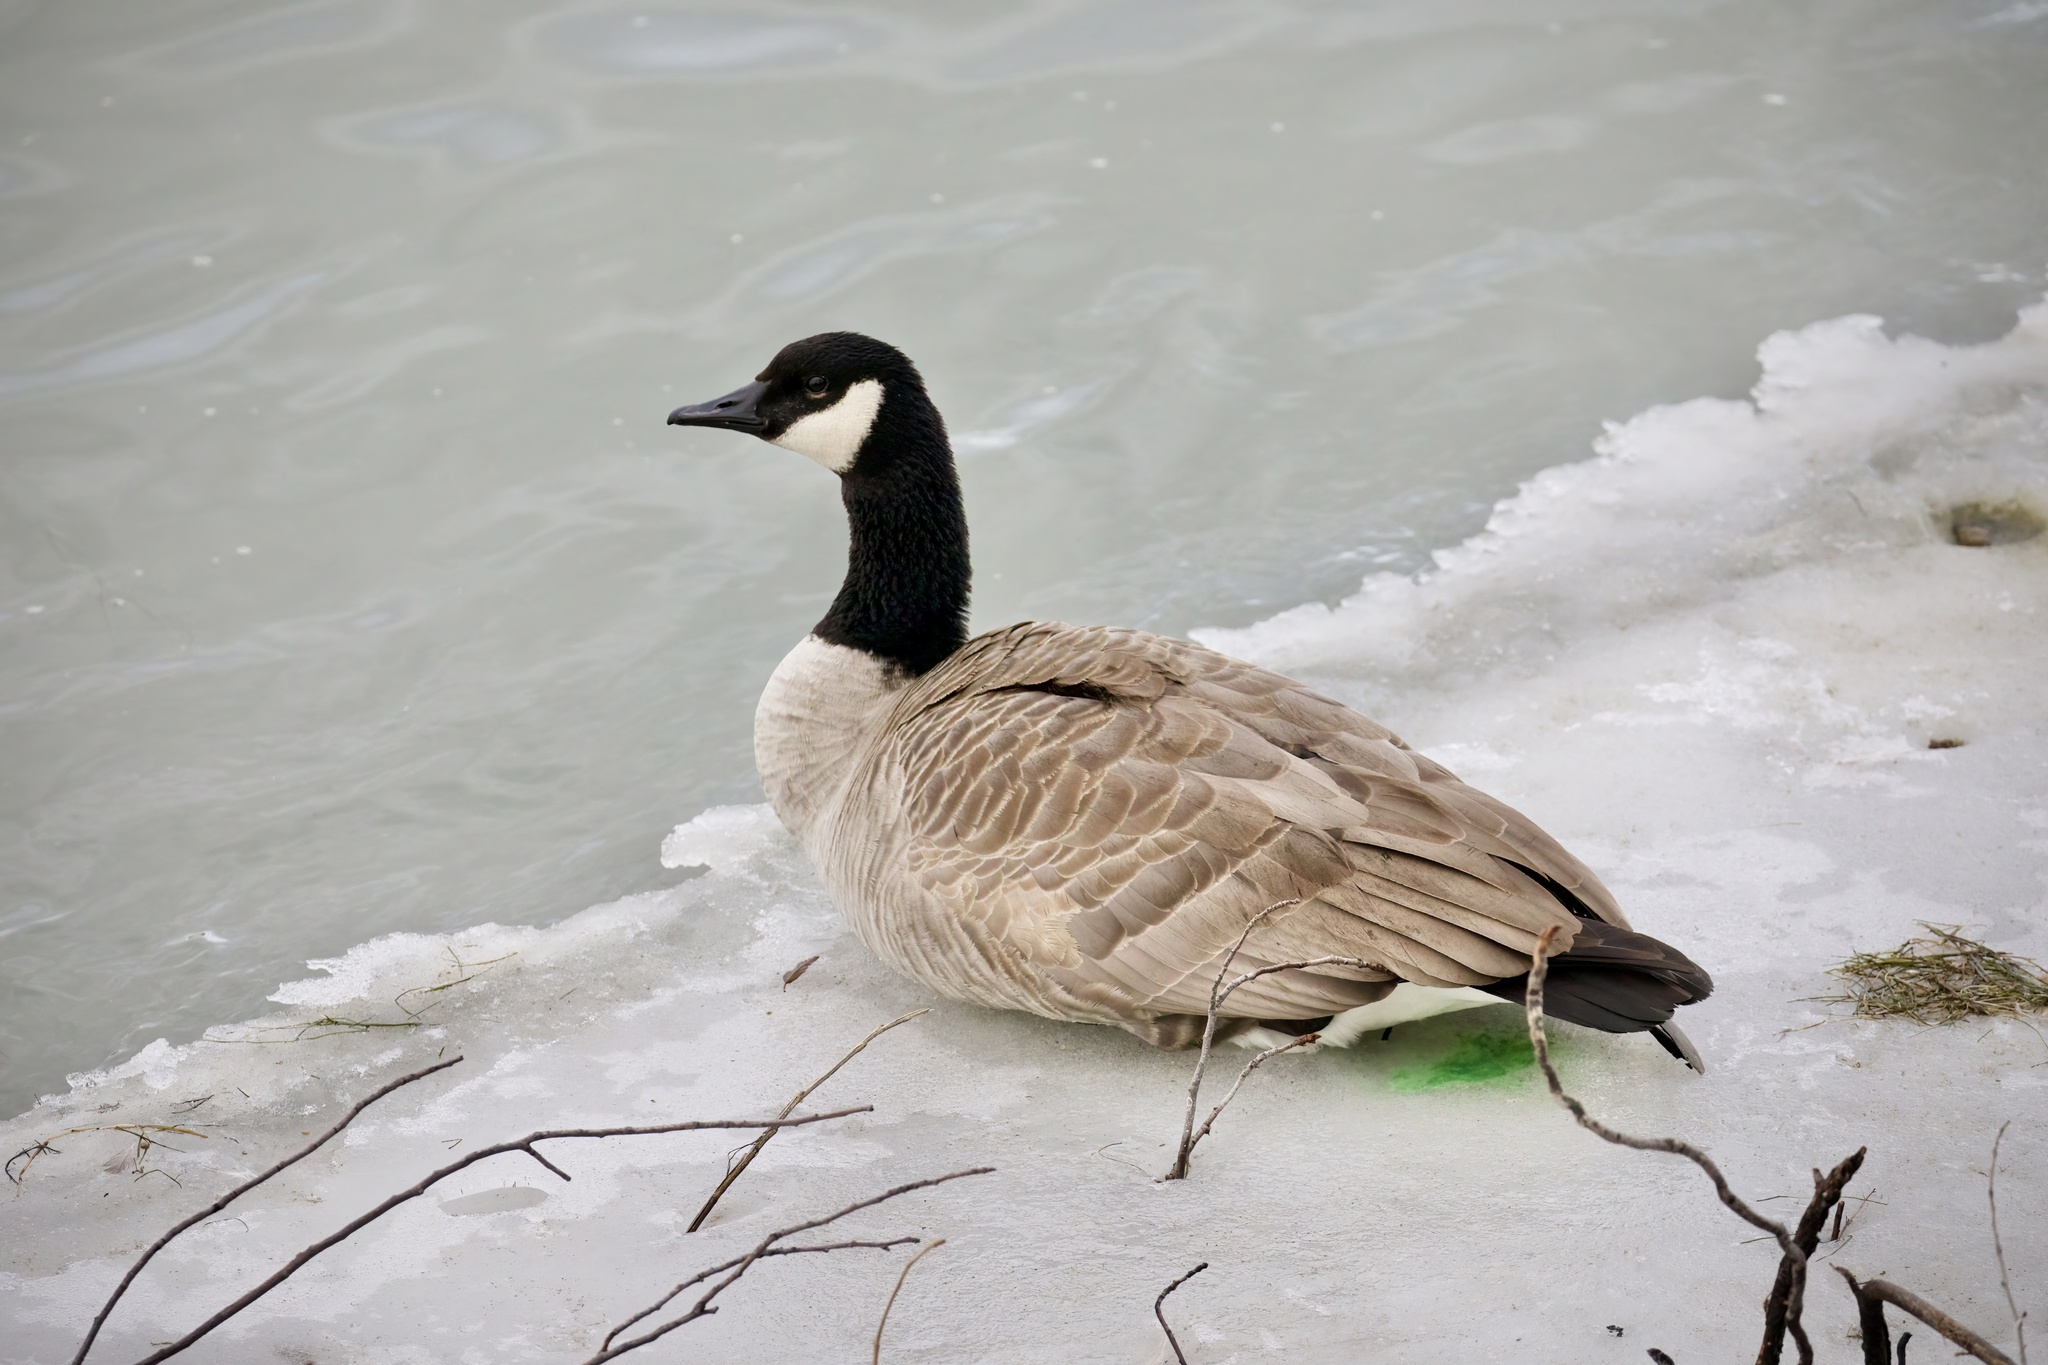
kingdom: Animalia
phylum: Chordata
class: Aves
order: Anseriformes
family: Anatidae
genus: Branta
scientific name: Branta canadensis
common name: Canada goose
